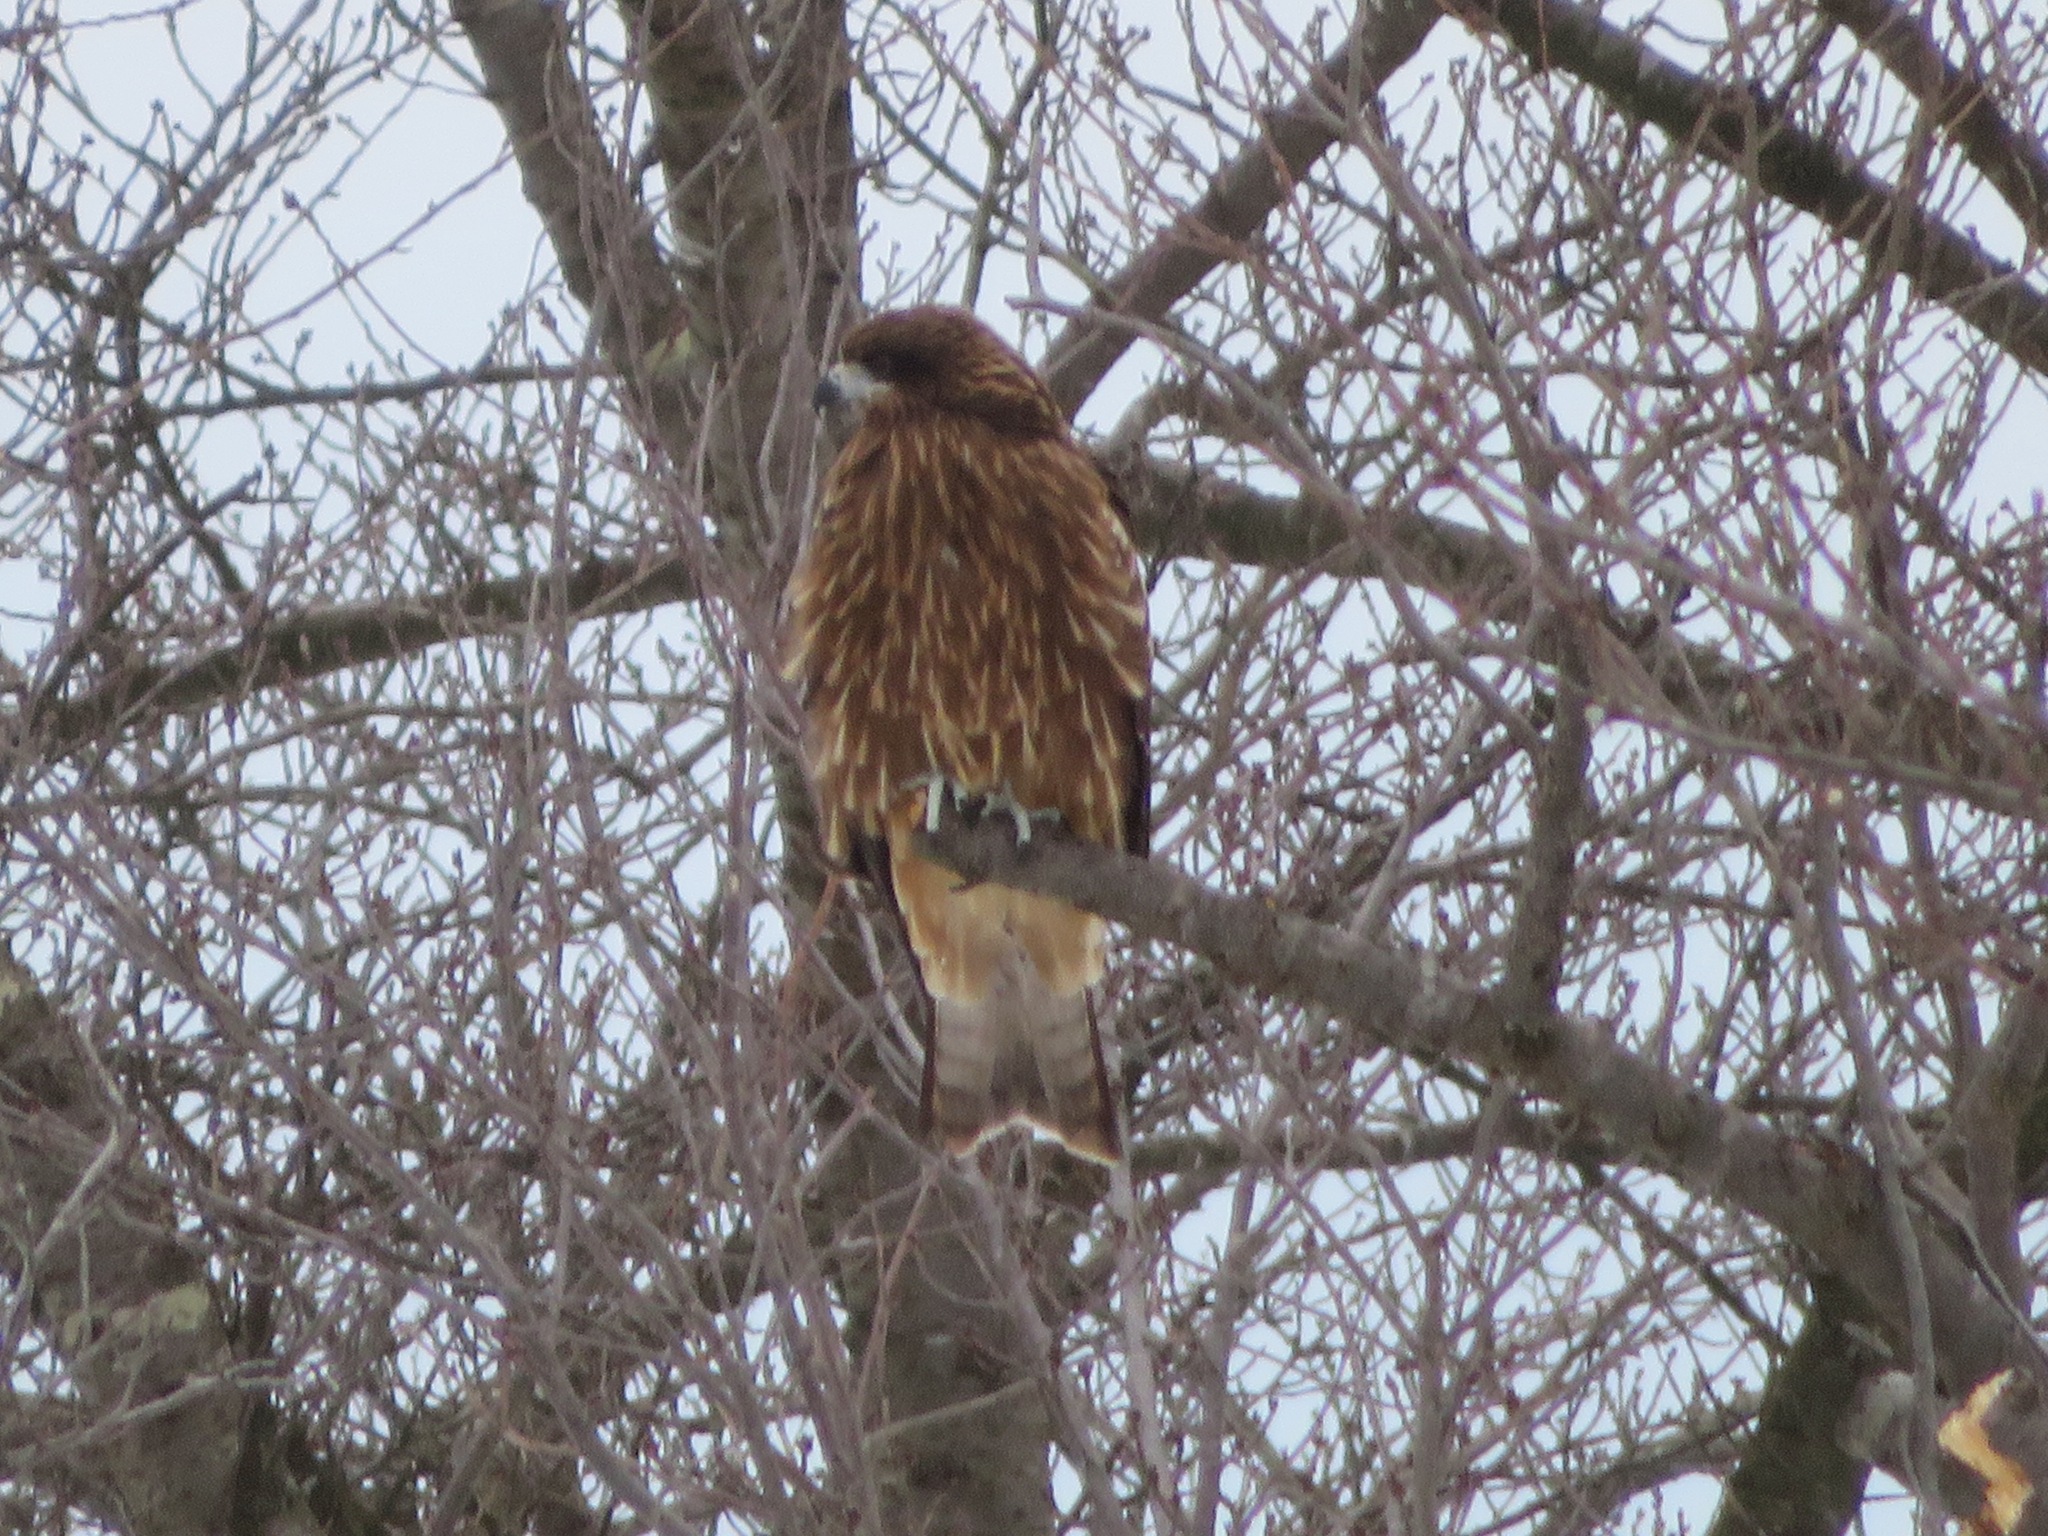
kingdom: Animalia
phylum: Chordata
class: Aves
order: Accipitriformes
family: Accipitridae
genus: Milvus
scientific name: Milvus migrans
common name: Black kite
